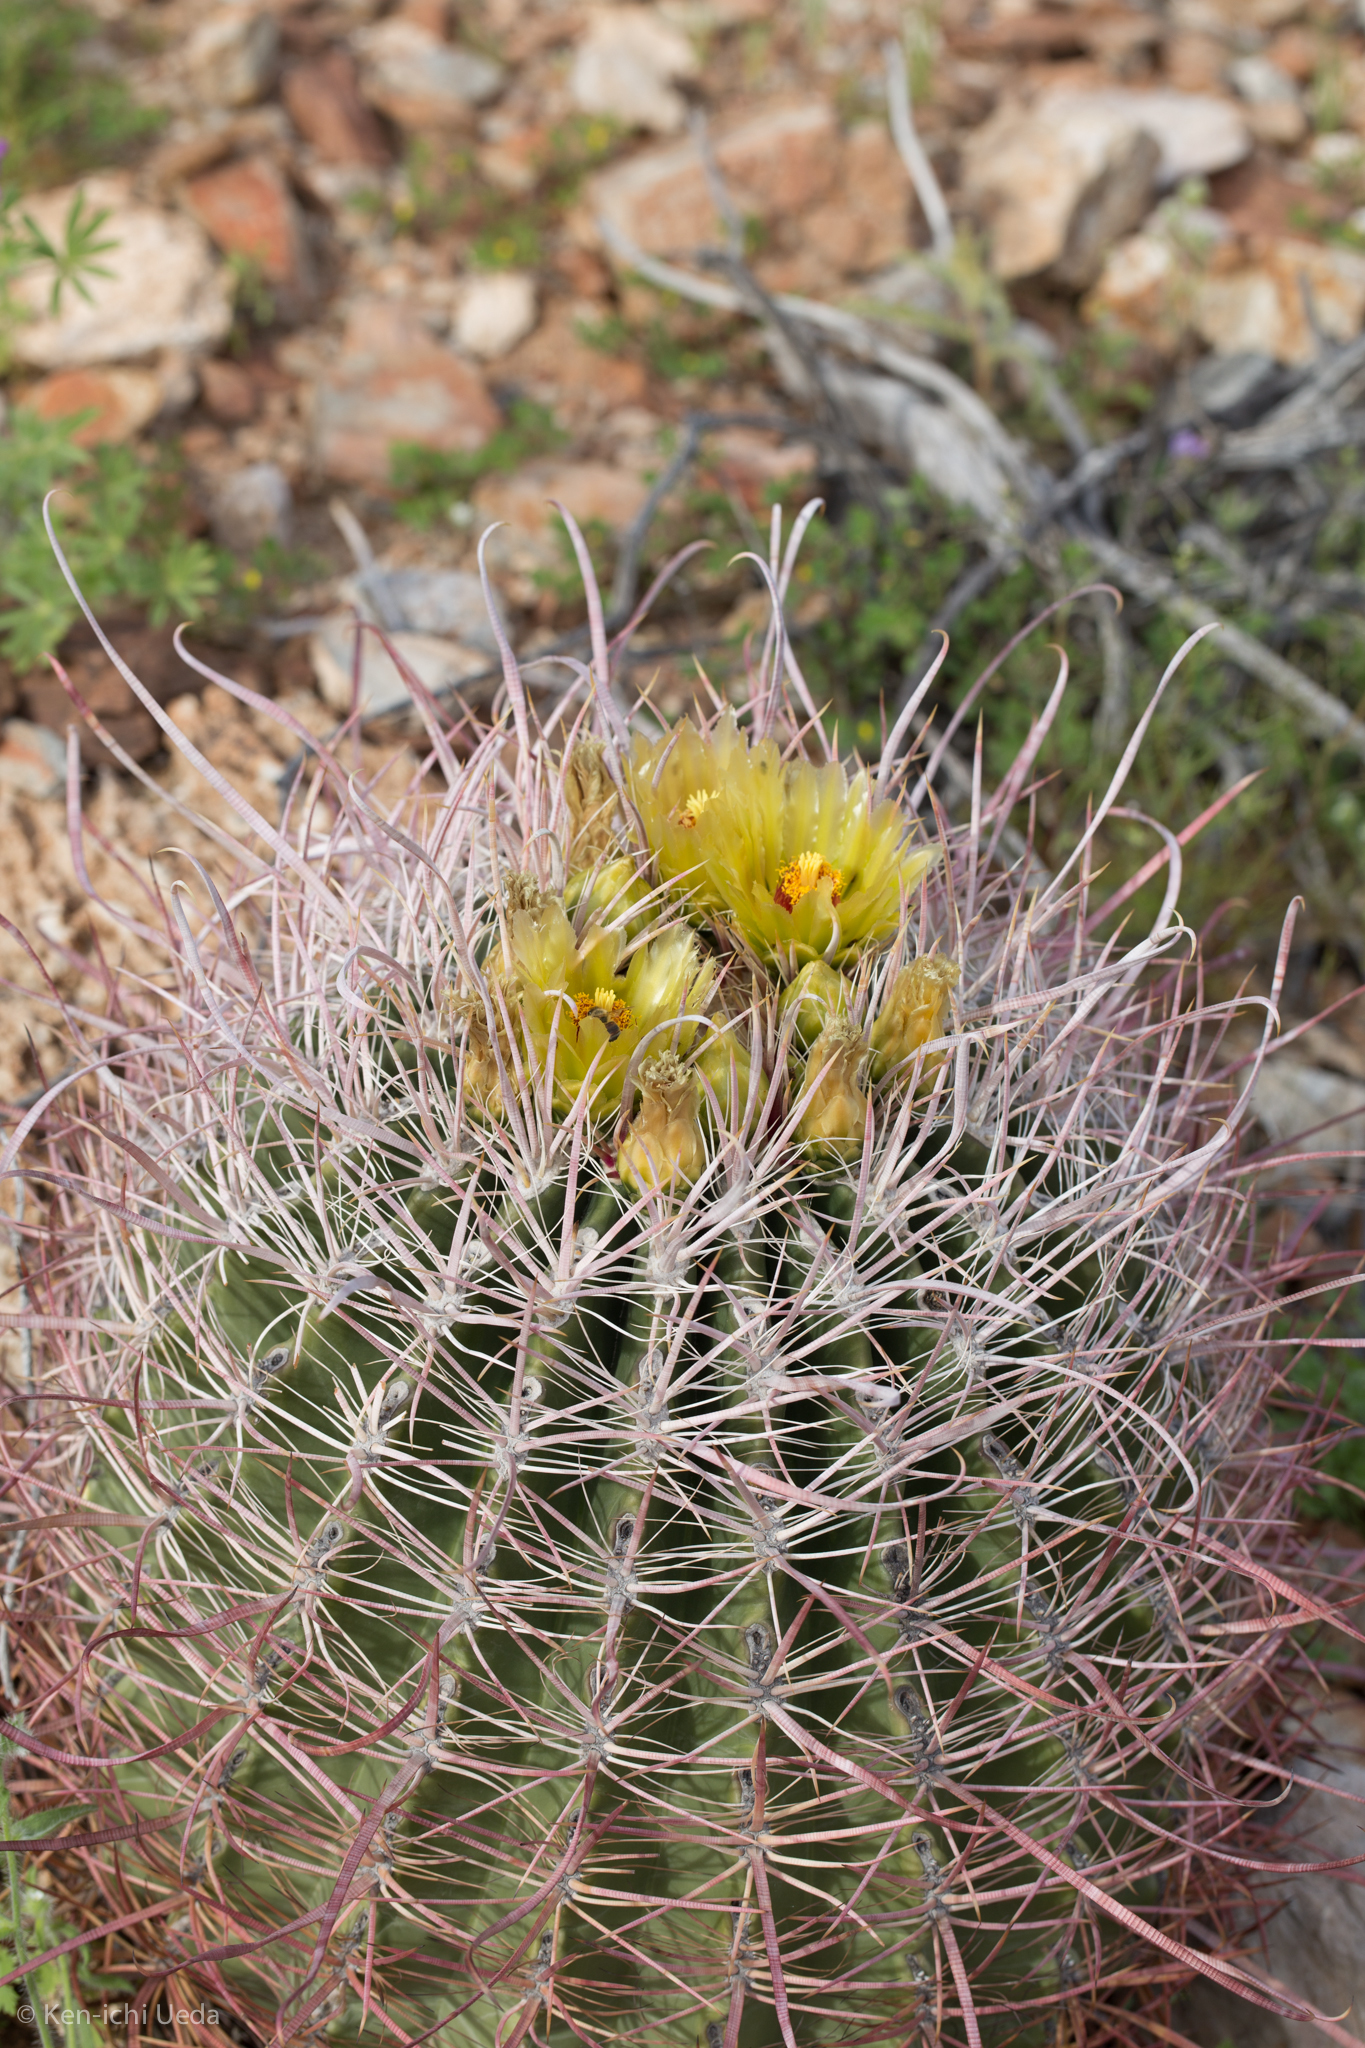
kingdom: Plantae
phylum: Tracheophyta
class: Magnoliopsida
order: Caryophyllales
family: Cactaceae
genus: Ferocactus
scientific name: Ferocactus cylindraceus
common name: California barrel cactus
